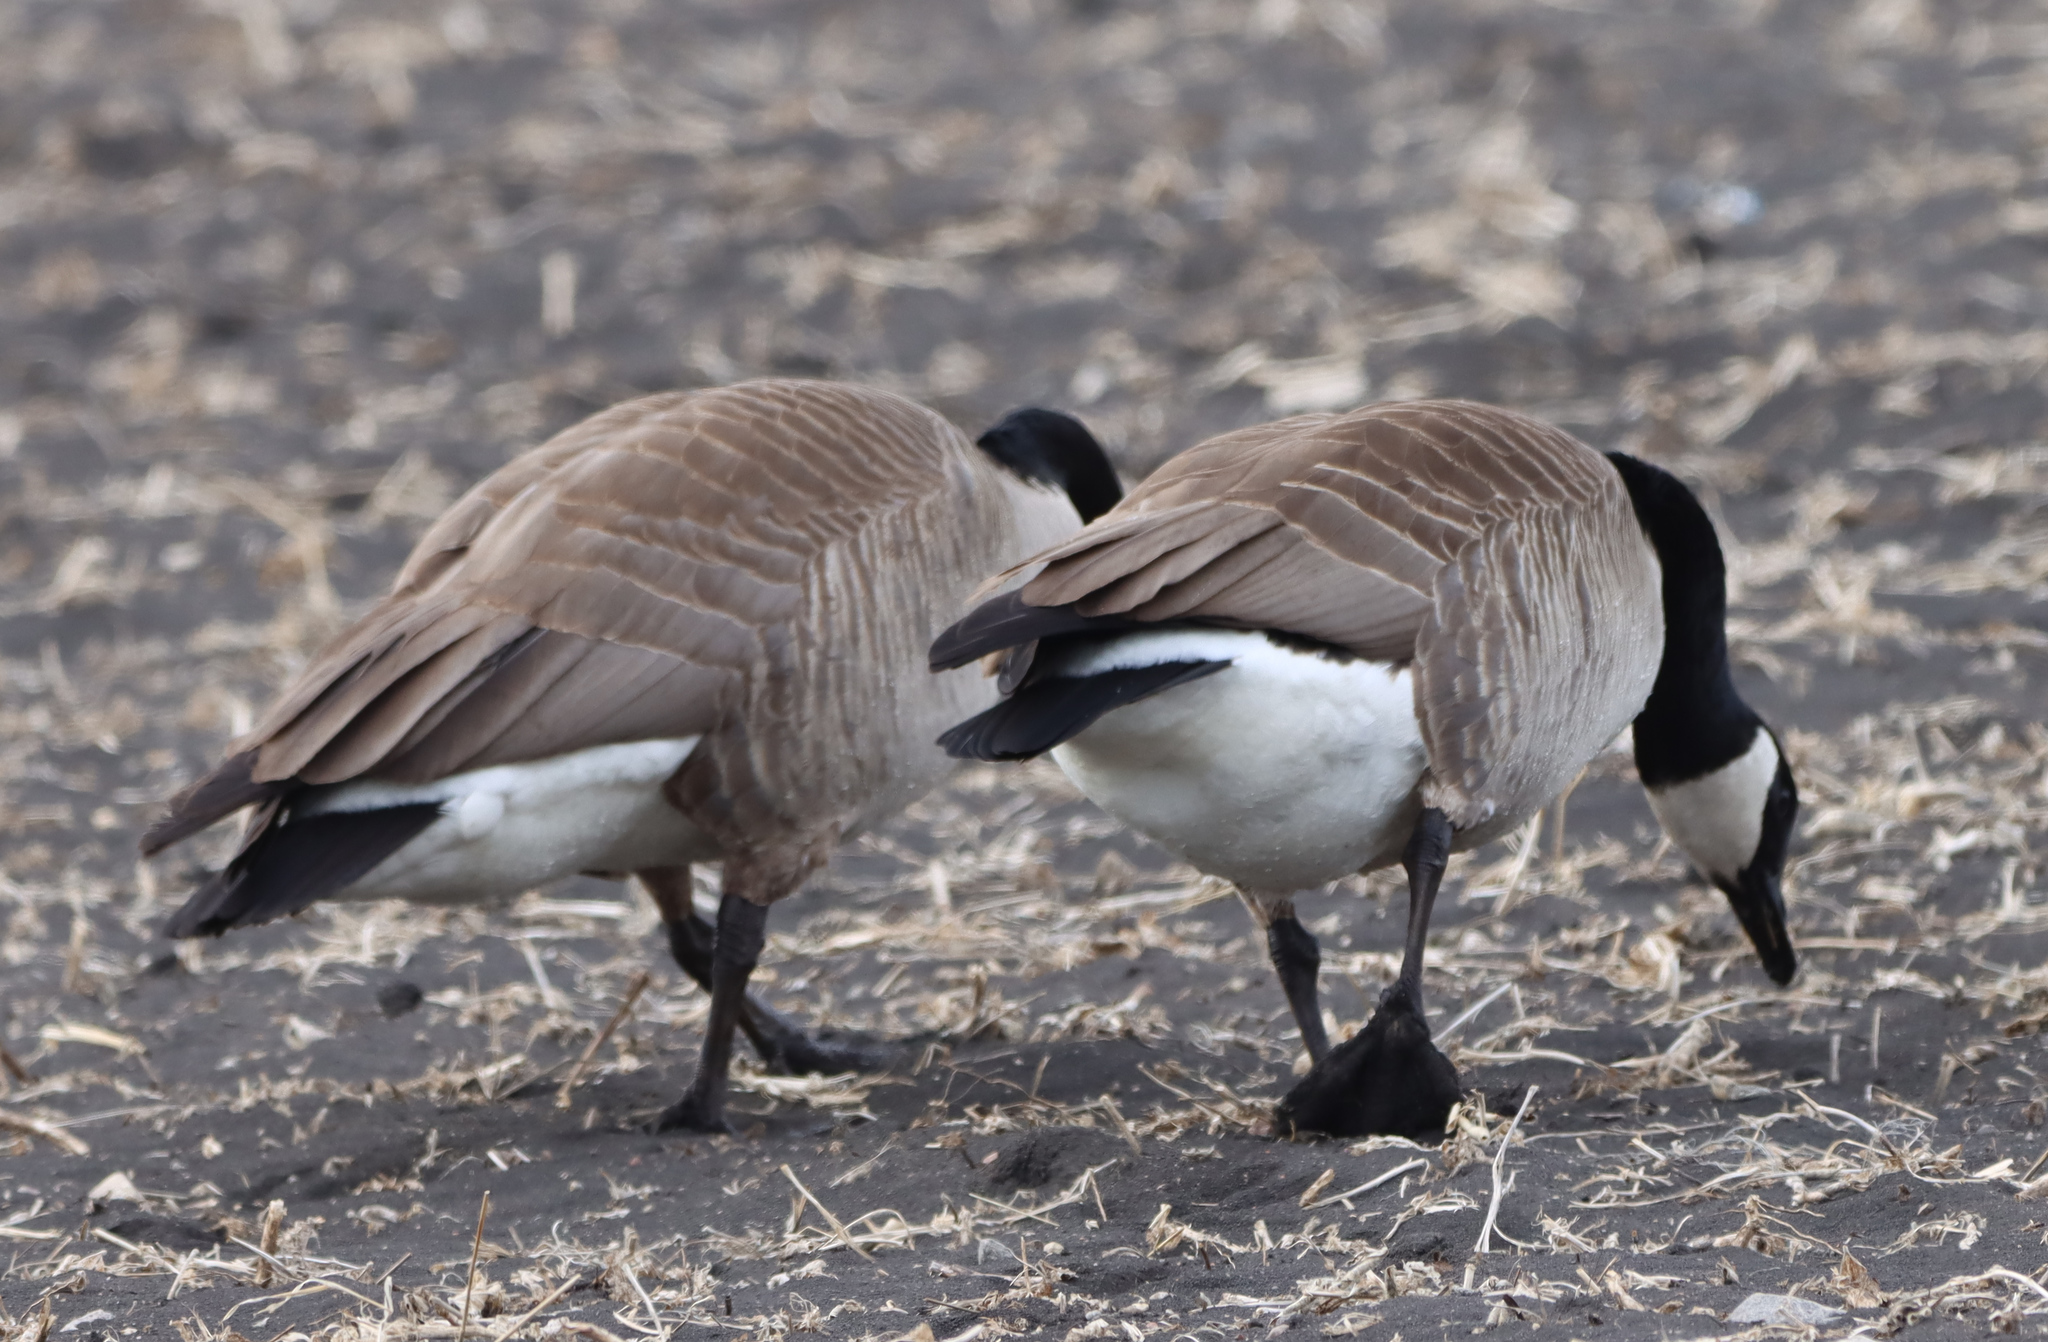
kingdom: Animalia
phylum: Chordata
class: Aves
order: Anseriformes
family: Anatidae
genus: Branta
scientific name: Branta canadensis
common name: Canada goose
